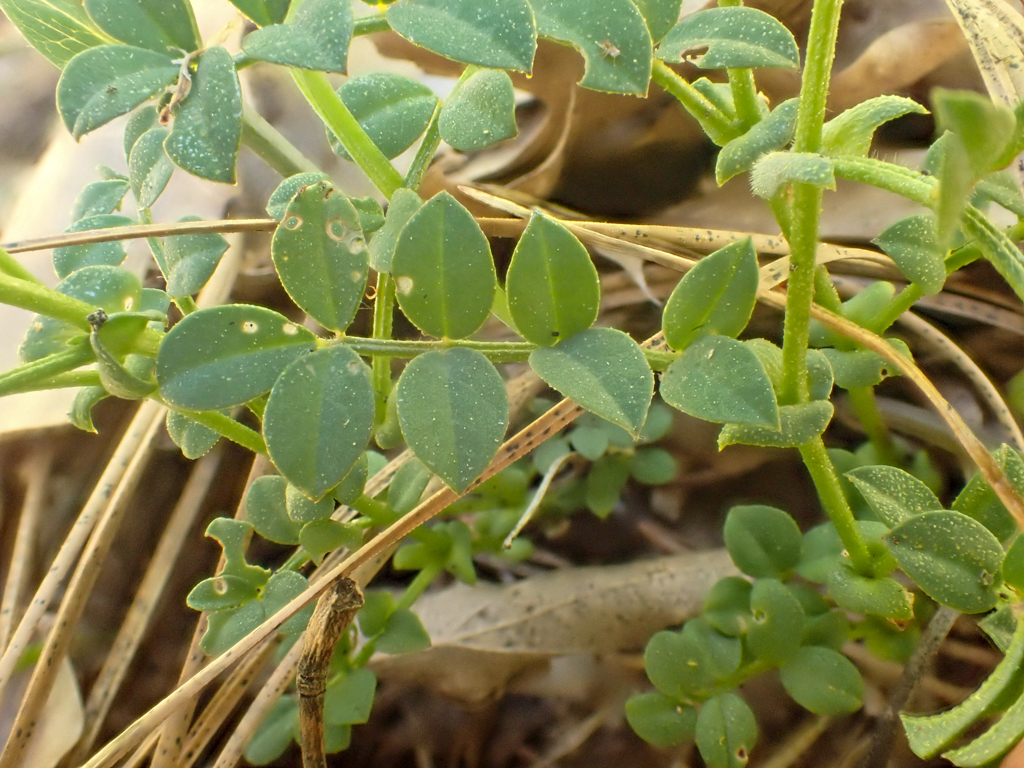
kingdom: Plantae
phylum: Tracheophyta
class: Magnoliopsida
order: Fabales
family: Fabaceae
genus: Hosackia
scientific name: Hosackia stipularis
